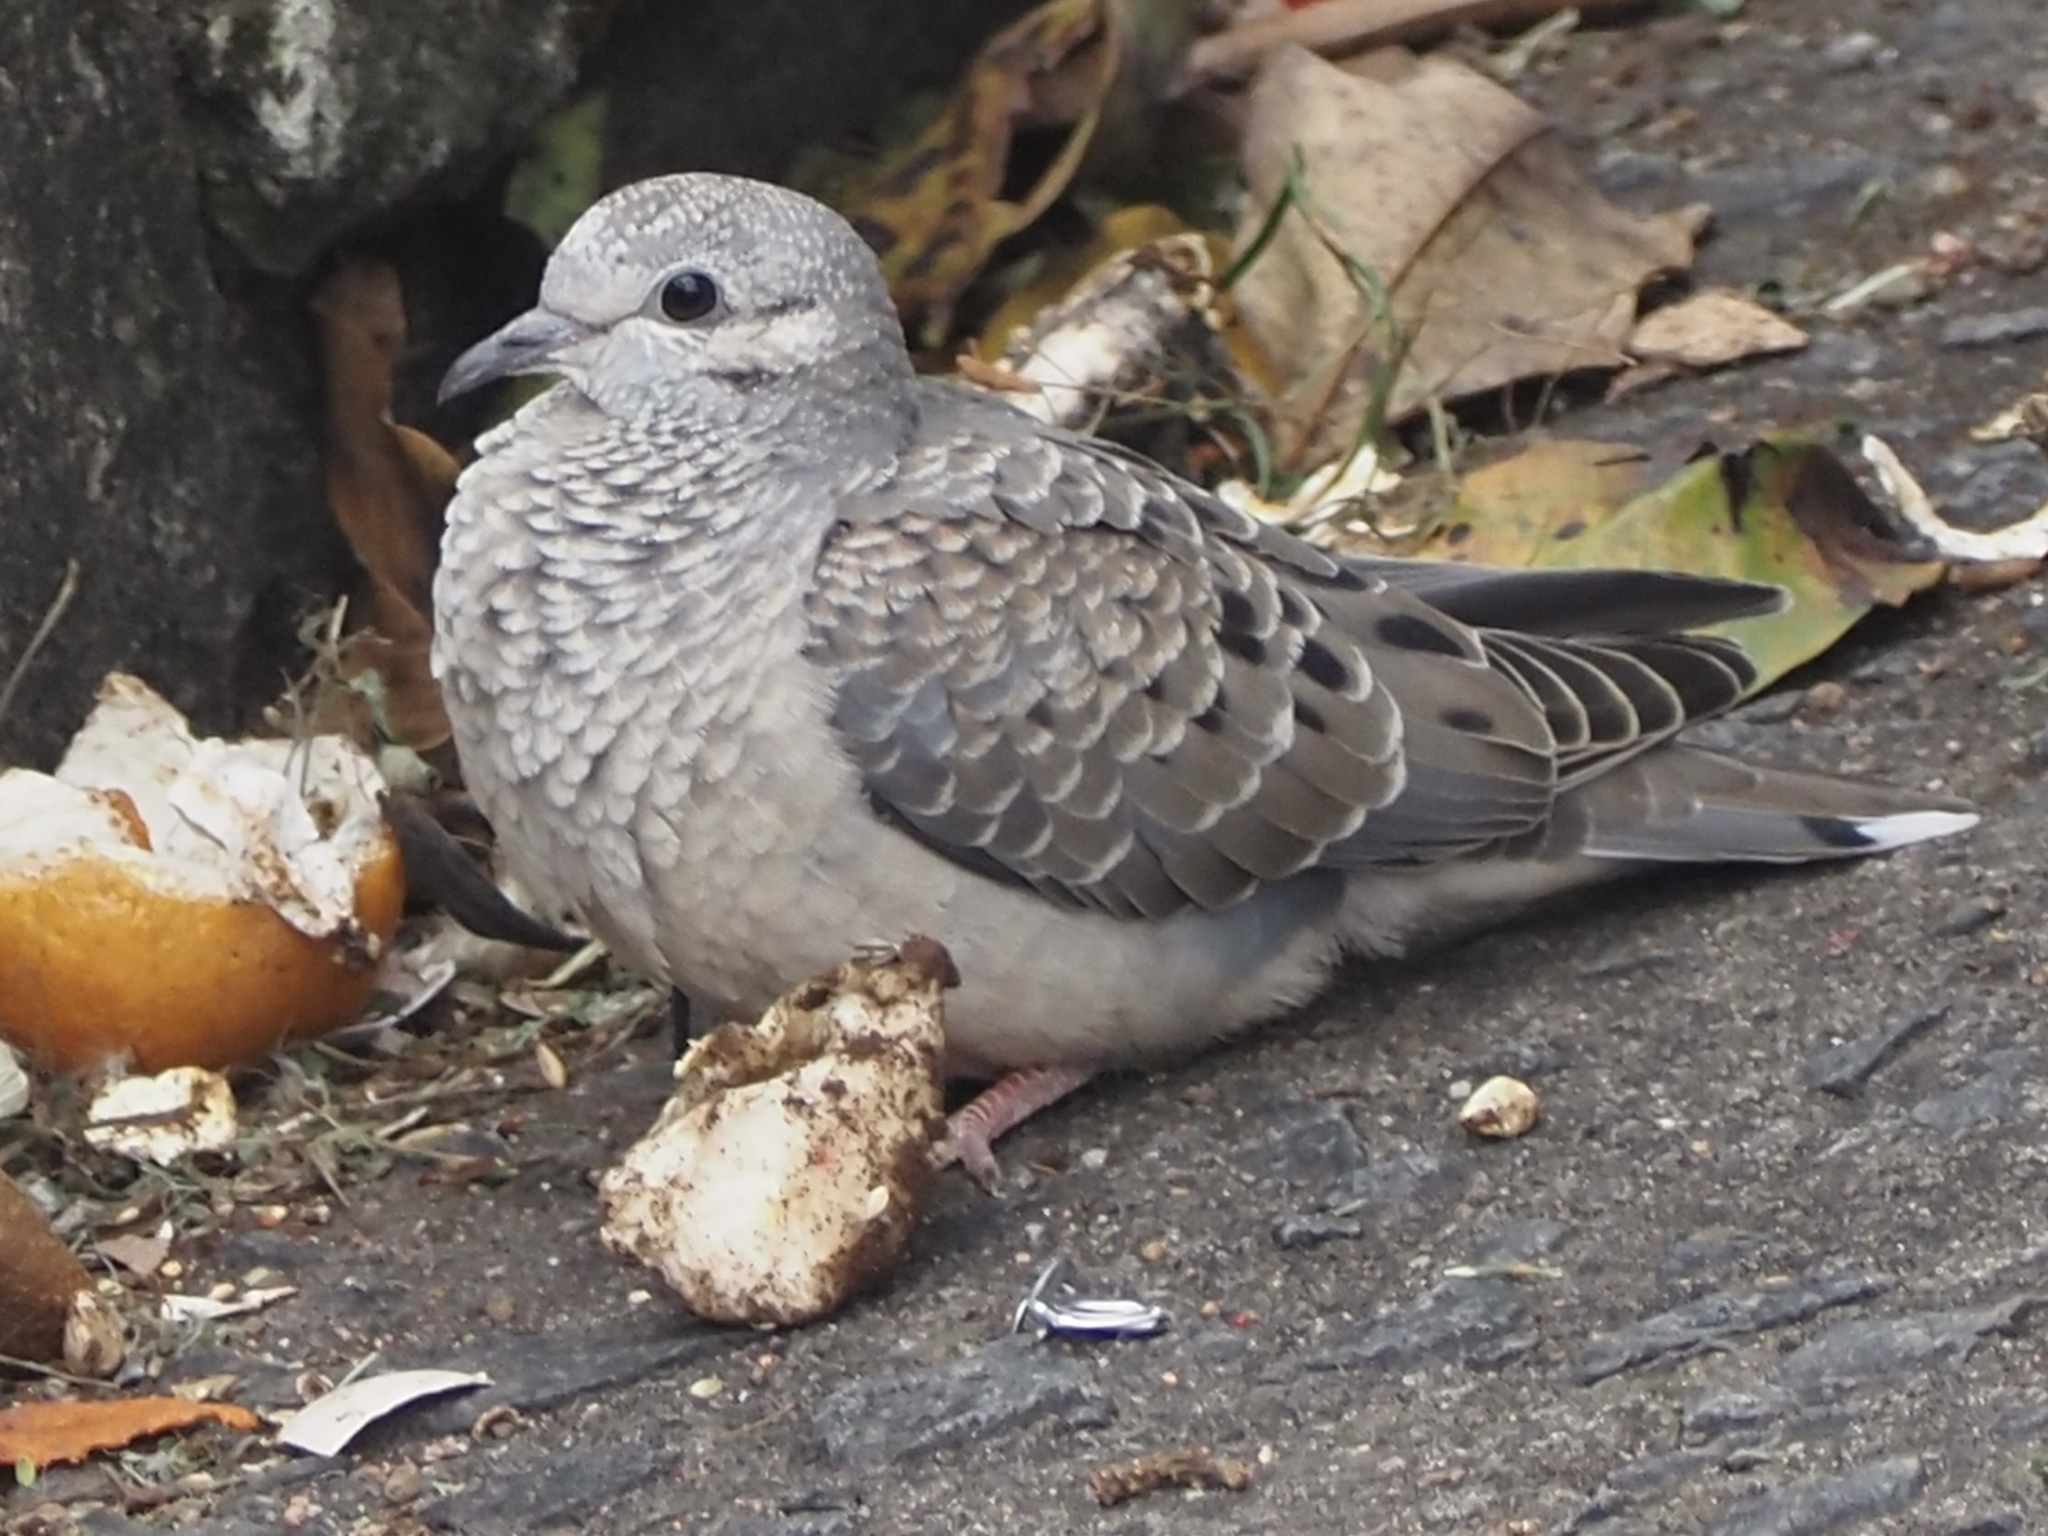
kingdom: Animalia
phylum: Chordata
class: Aves
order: Columbiformes
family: Columbidae
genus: Zenaida
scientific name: Zenaida auriculata
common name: Eared dove
